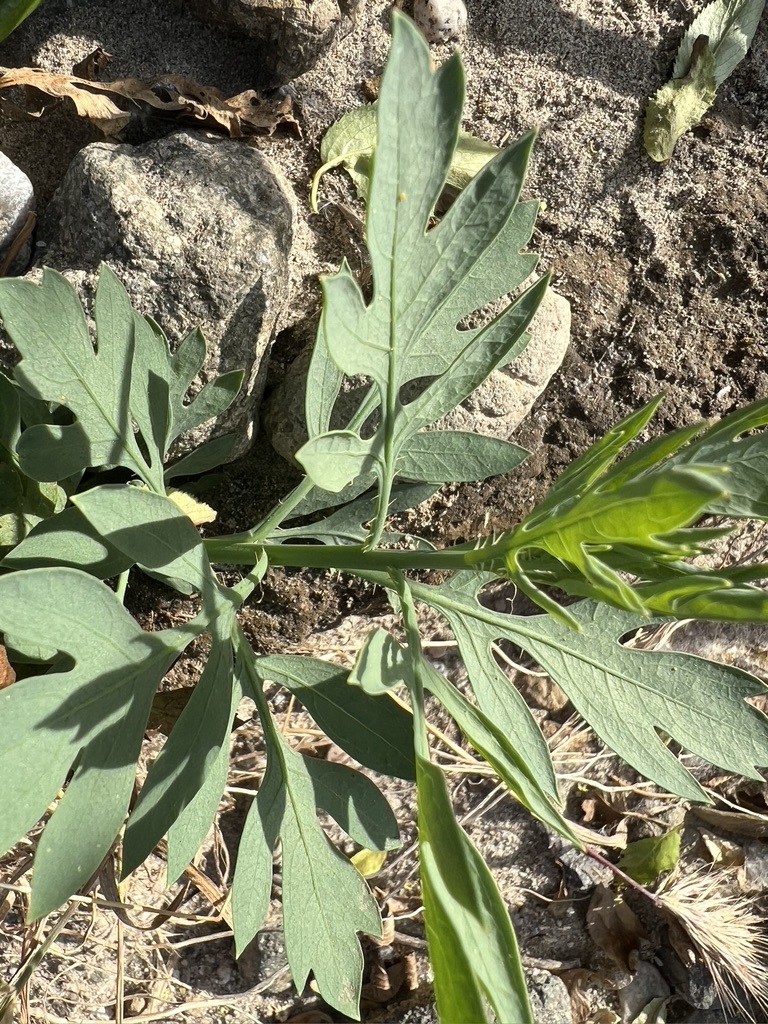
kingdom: Plantae
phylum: Tracheophyta
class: Magnoliopsida
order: Ranunculales
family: Papaveraceae
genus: Romneya
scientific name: Romneya coulteri
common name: California tree-poppy
